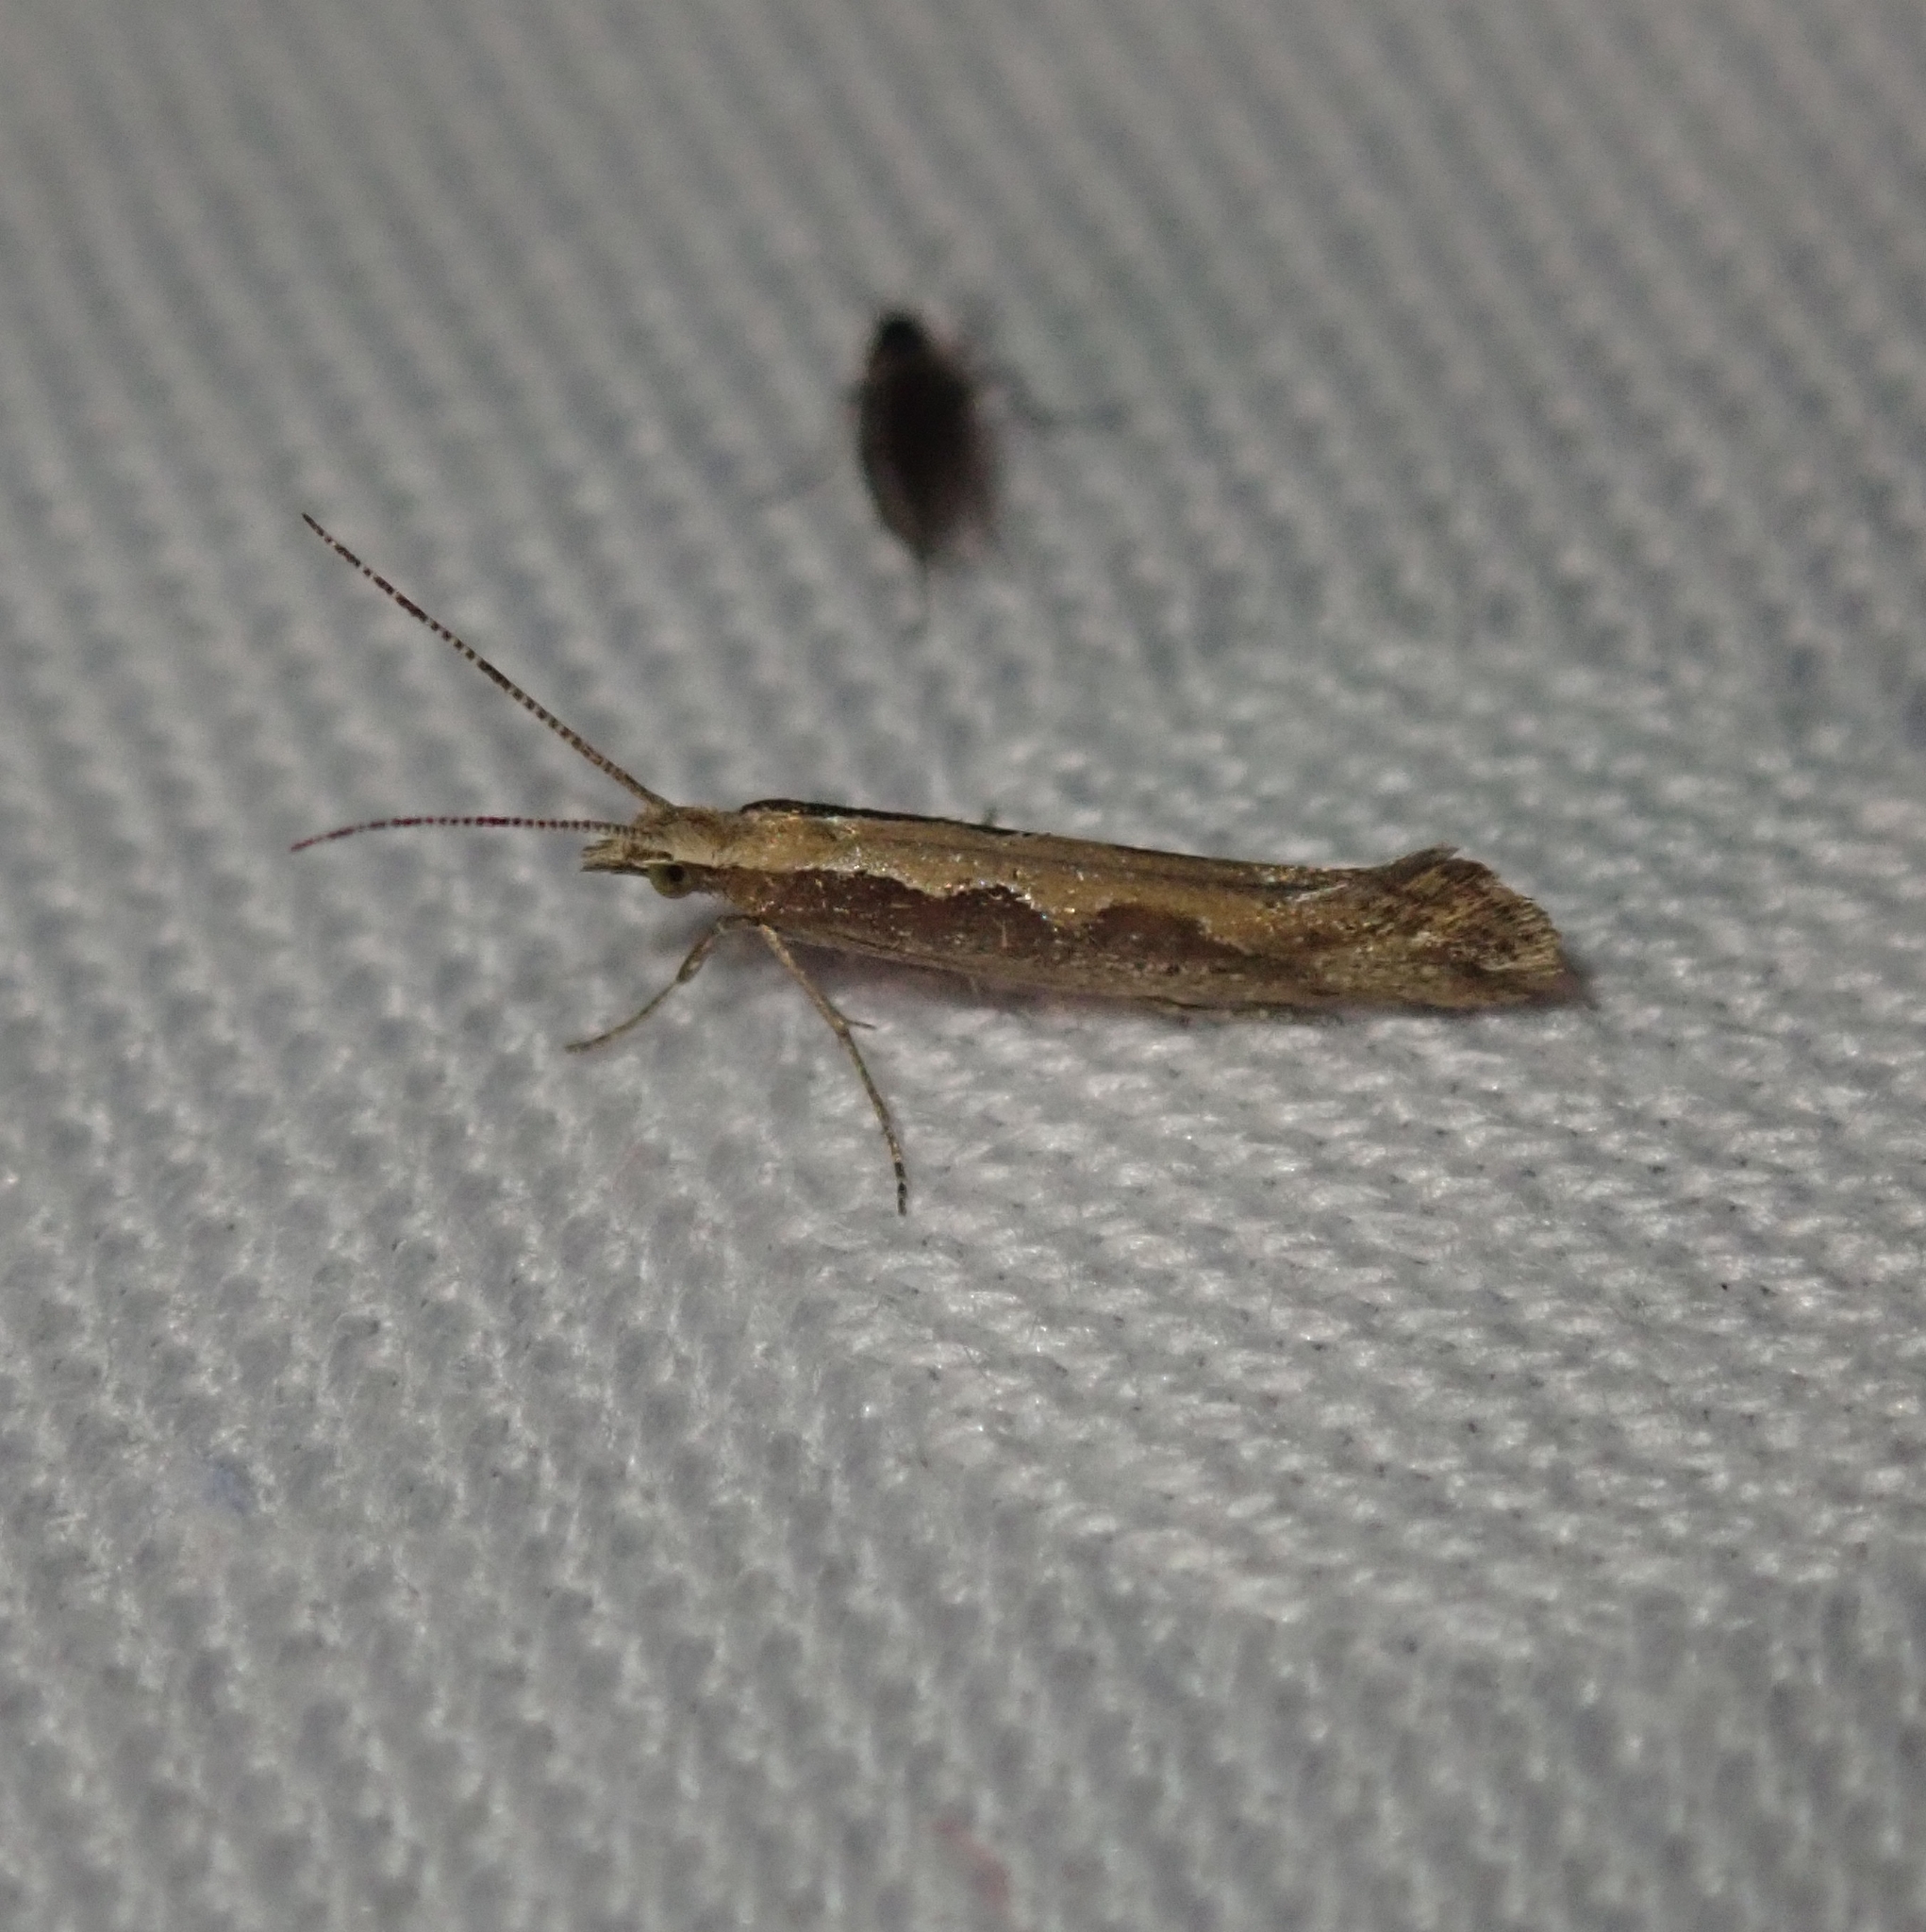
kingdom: Animalia
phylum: Arthropoda
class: Insecta
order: Lepidoptera
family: Plutellidae
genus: Plutella
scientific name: Plutella xylostella
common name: Diamond-back moth
